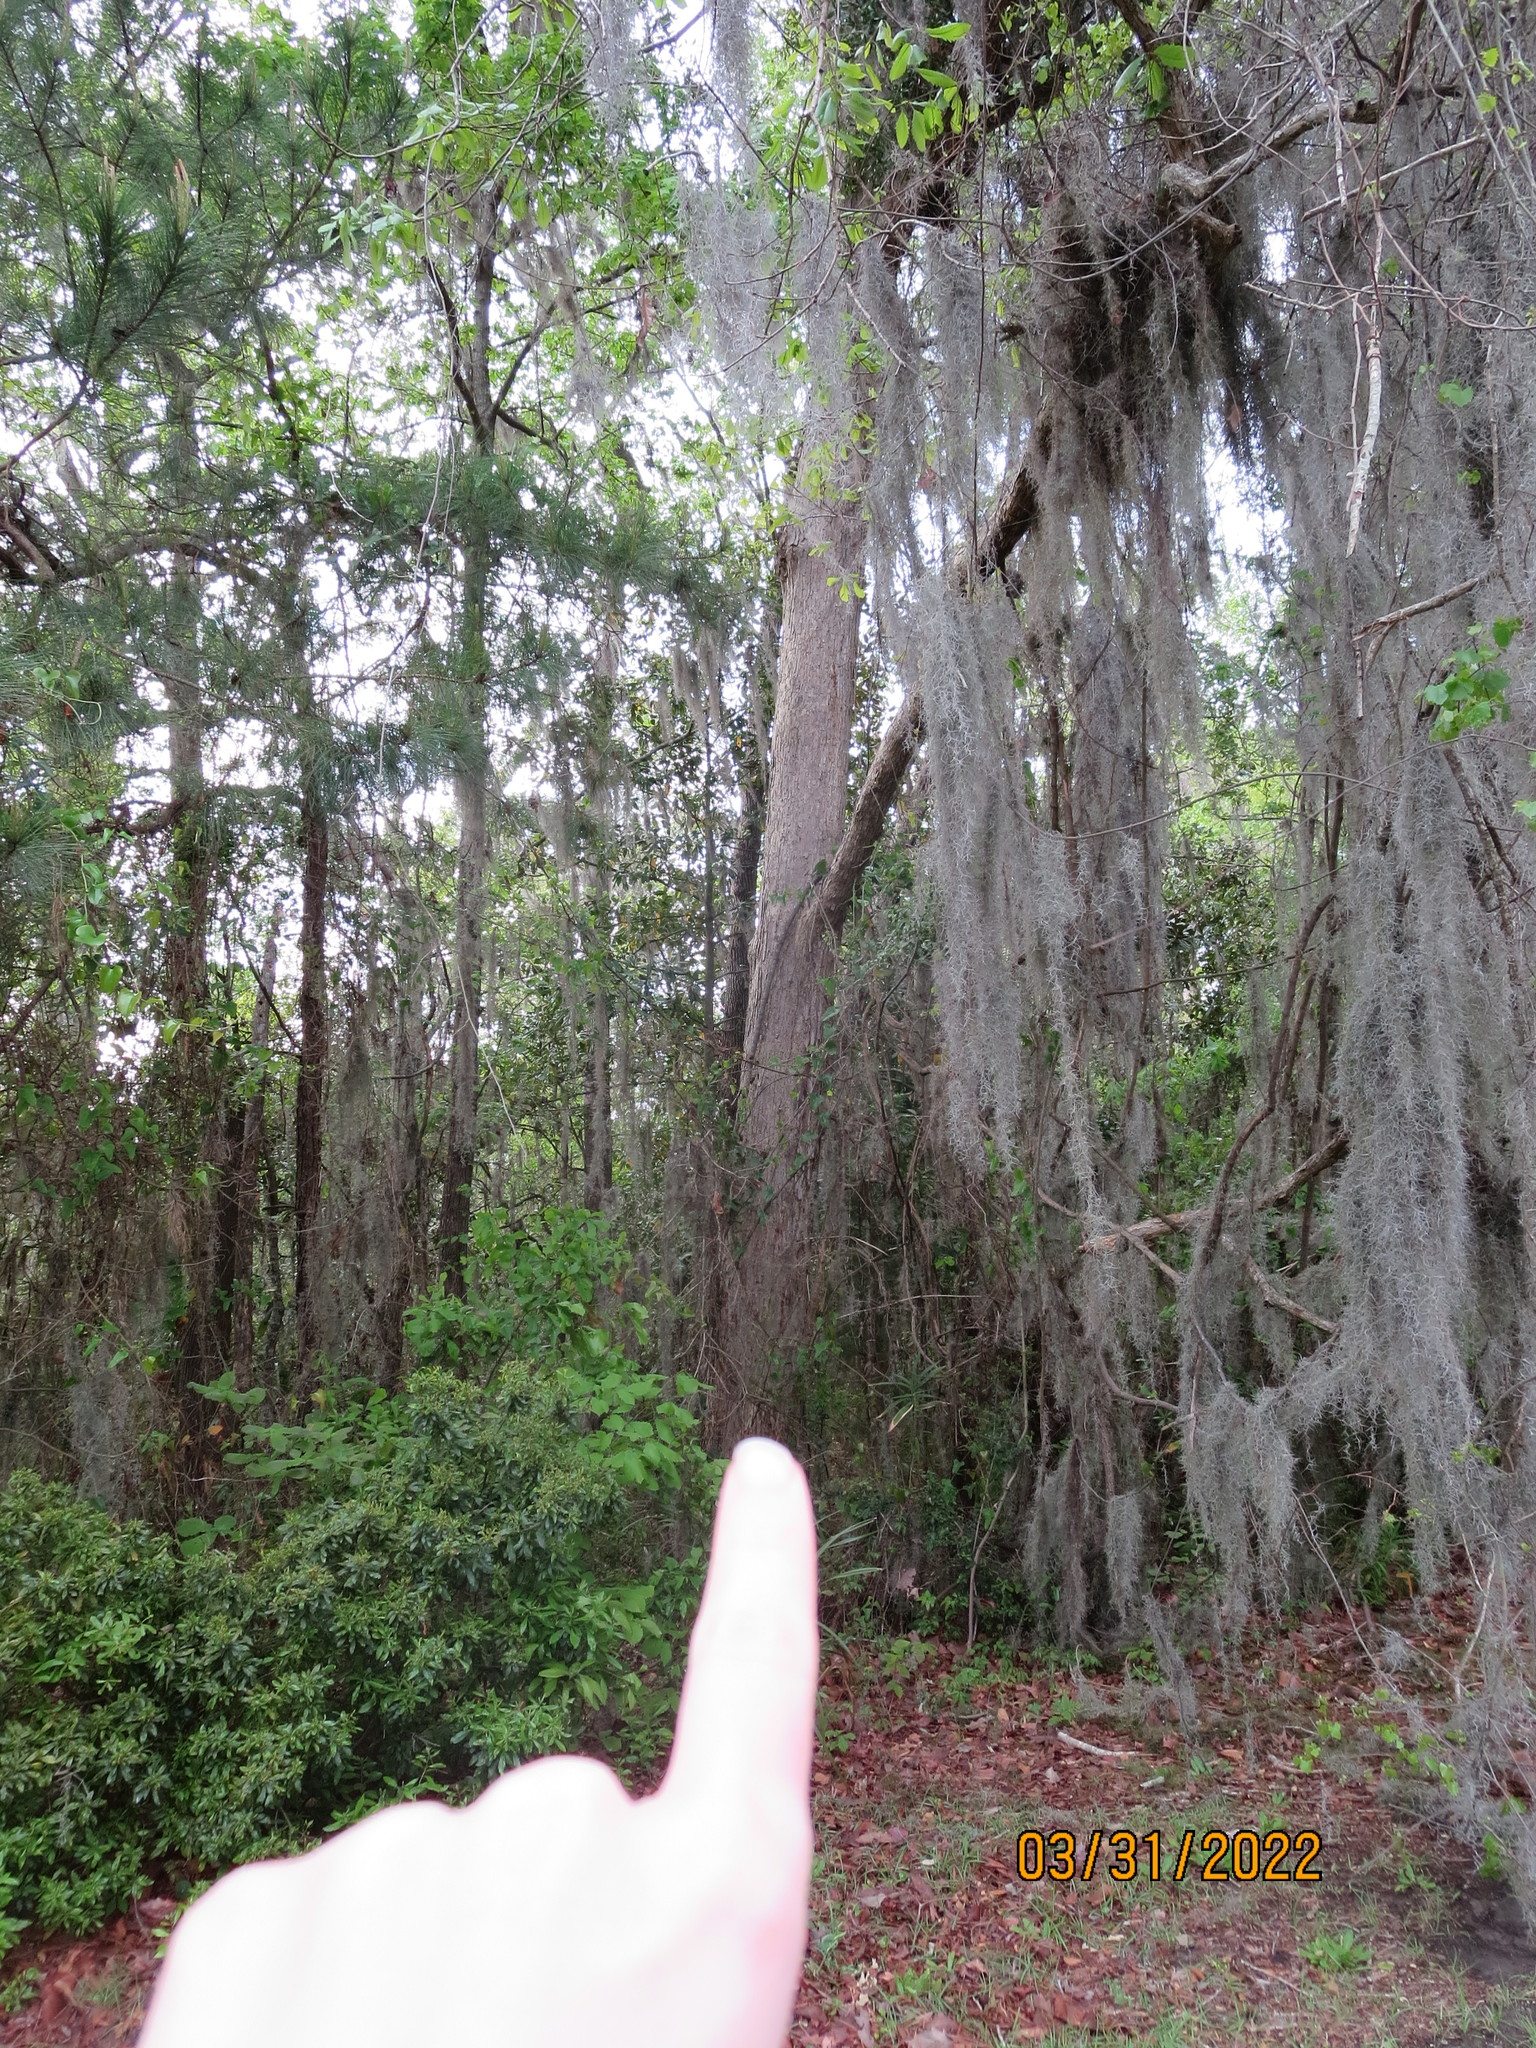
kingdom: Plantae
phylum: Tracheophyta
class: Magnoliopsida
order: Fagales
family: Fagaceae
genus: Quercus
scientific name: Quercus michauxii
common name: Swamp chestnut oak
